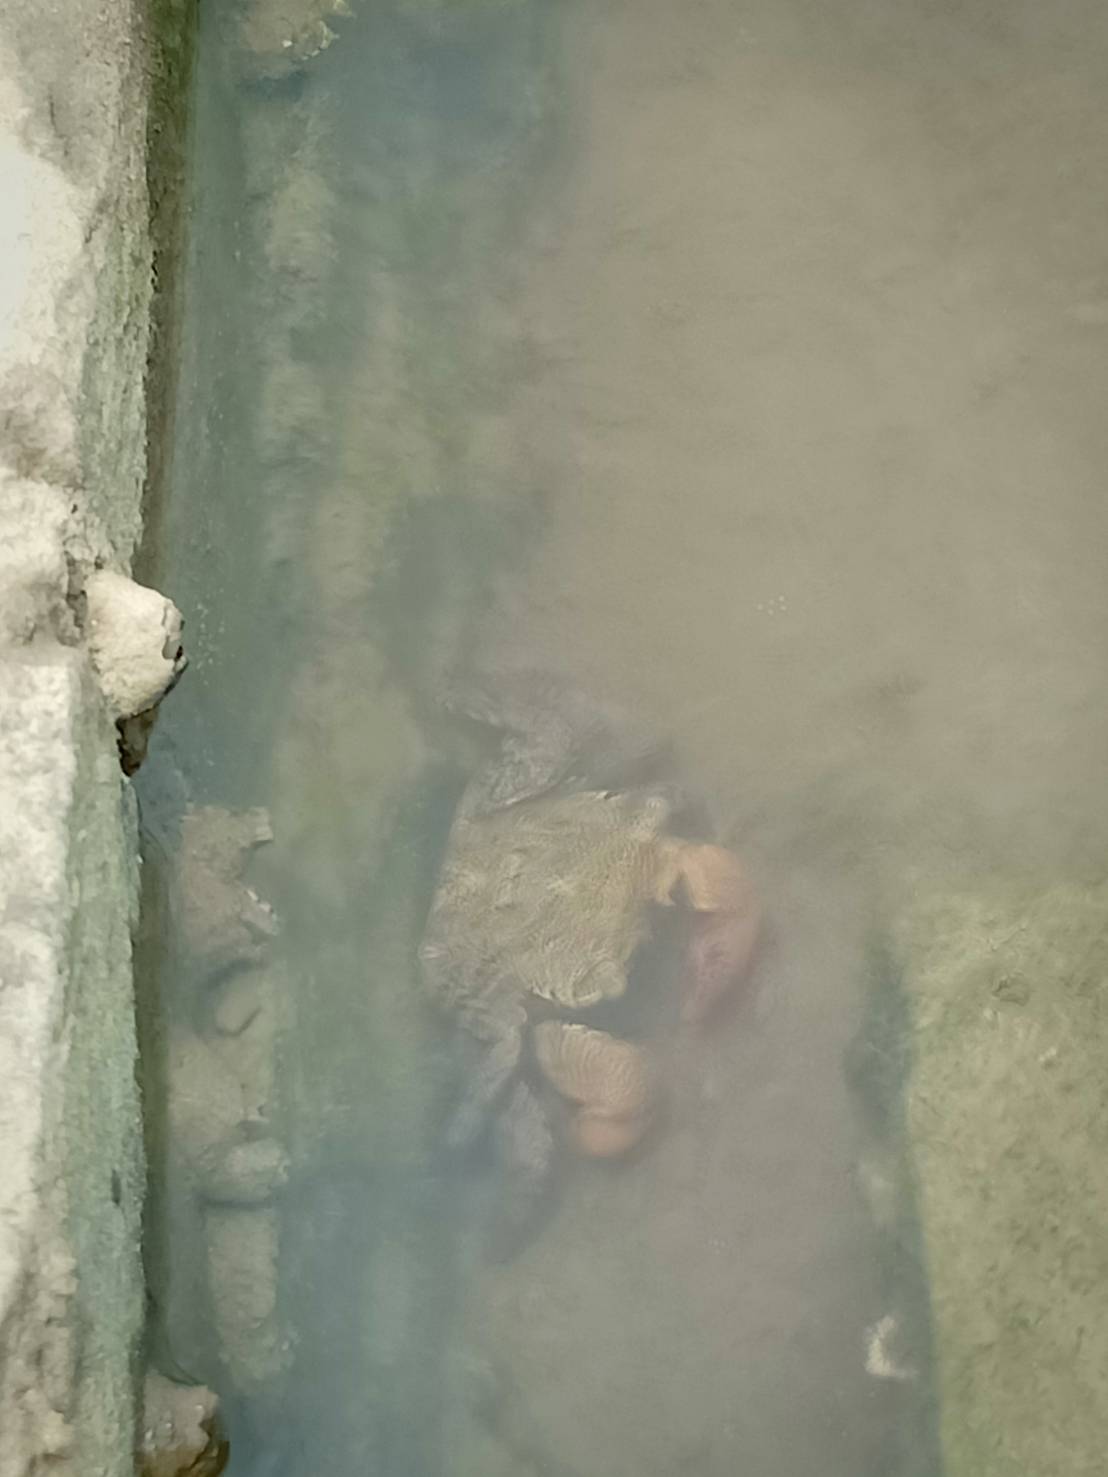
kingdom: Animalia
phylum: Arthropoda
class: Malacostraca
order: Decapoda
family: Sesarmidae
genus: Parasesarma
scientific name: Parasesarma bidens
